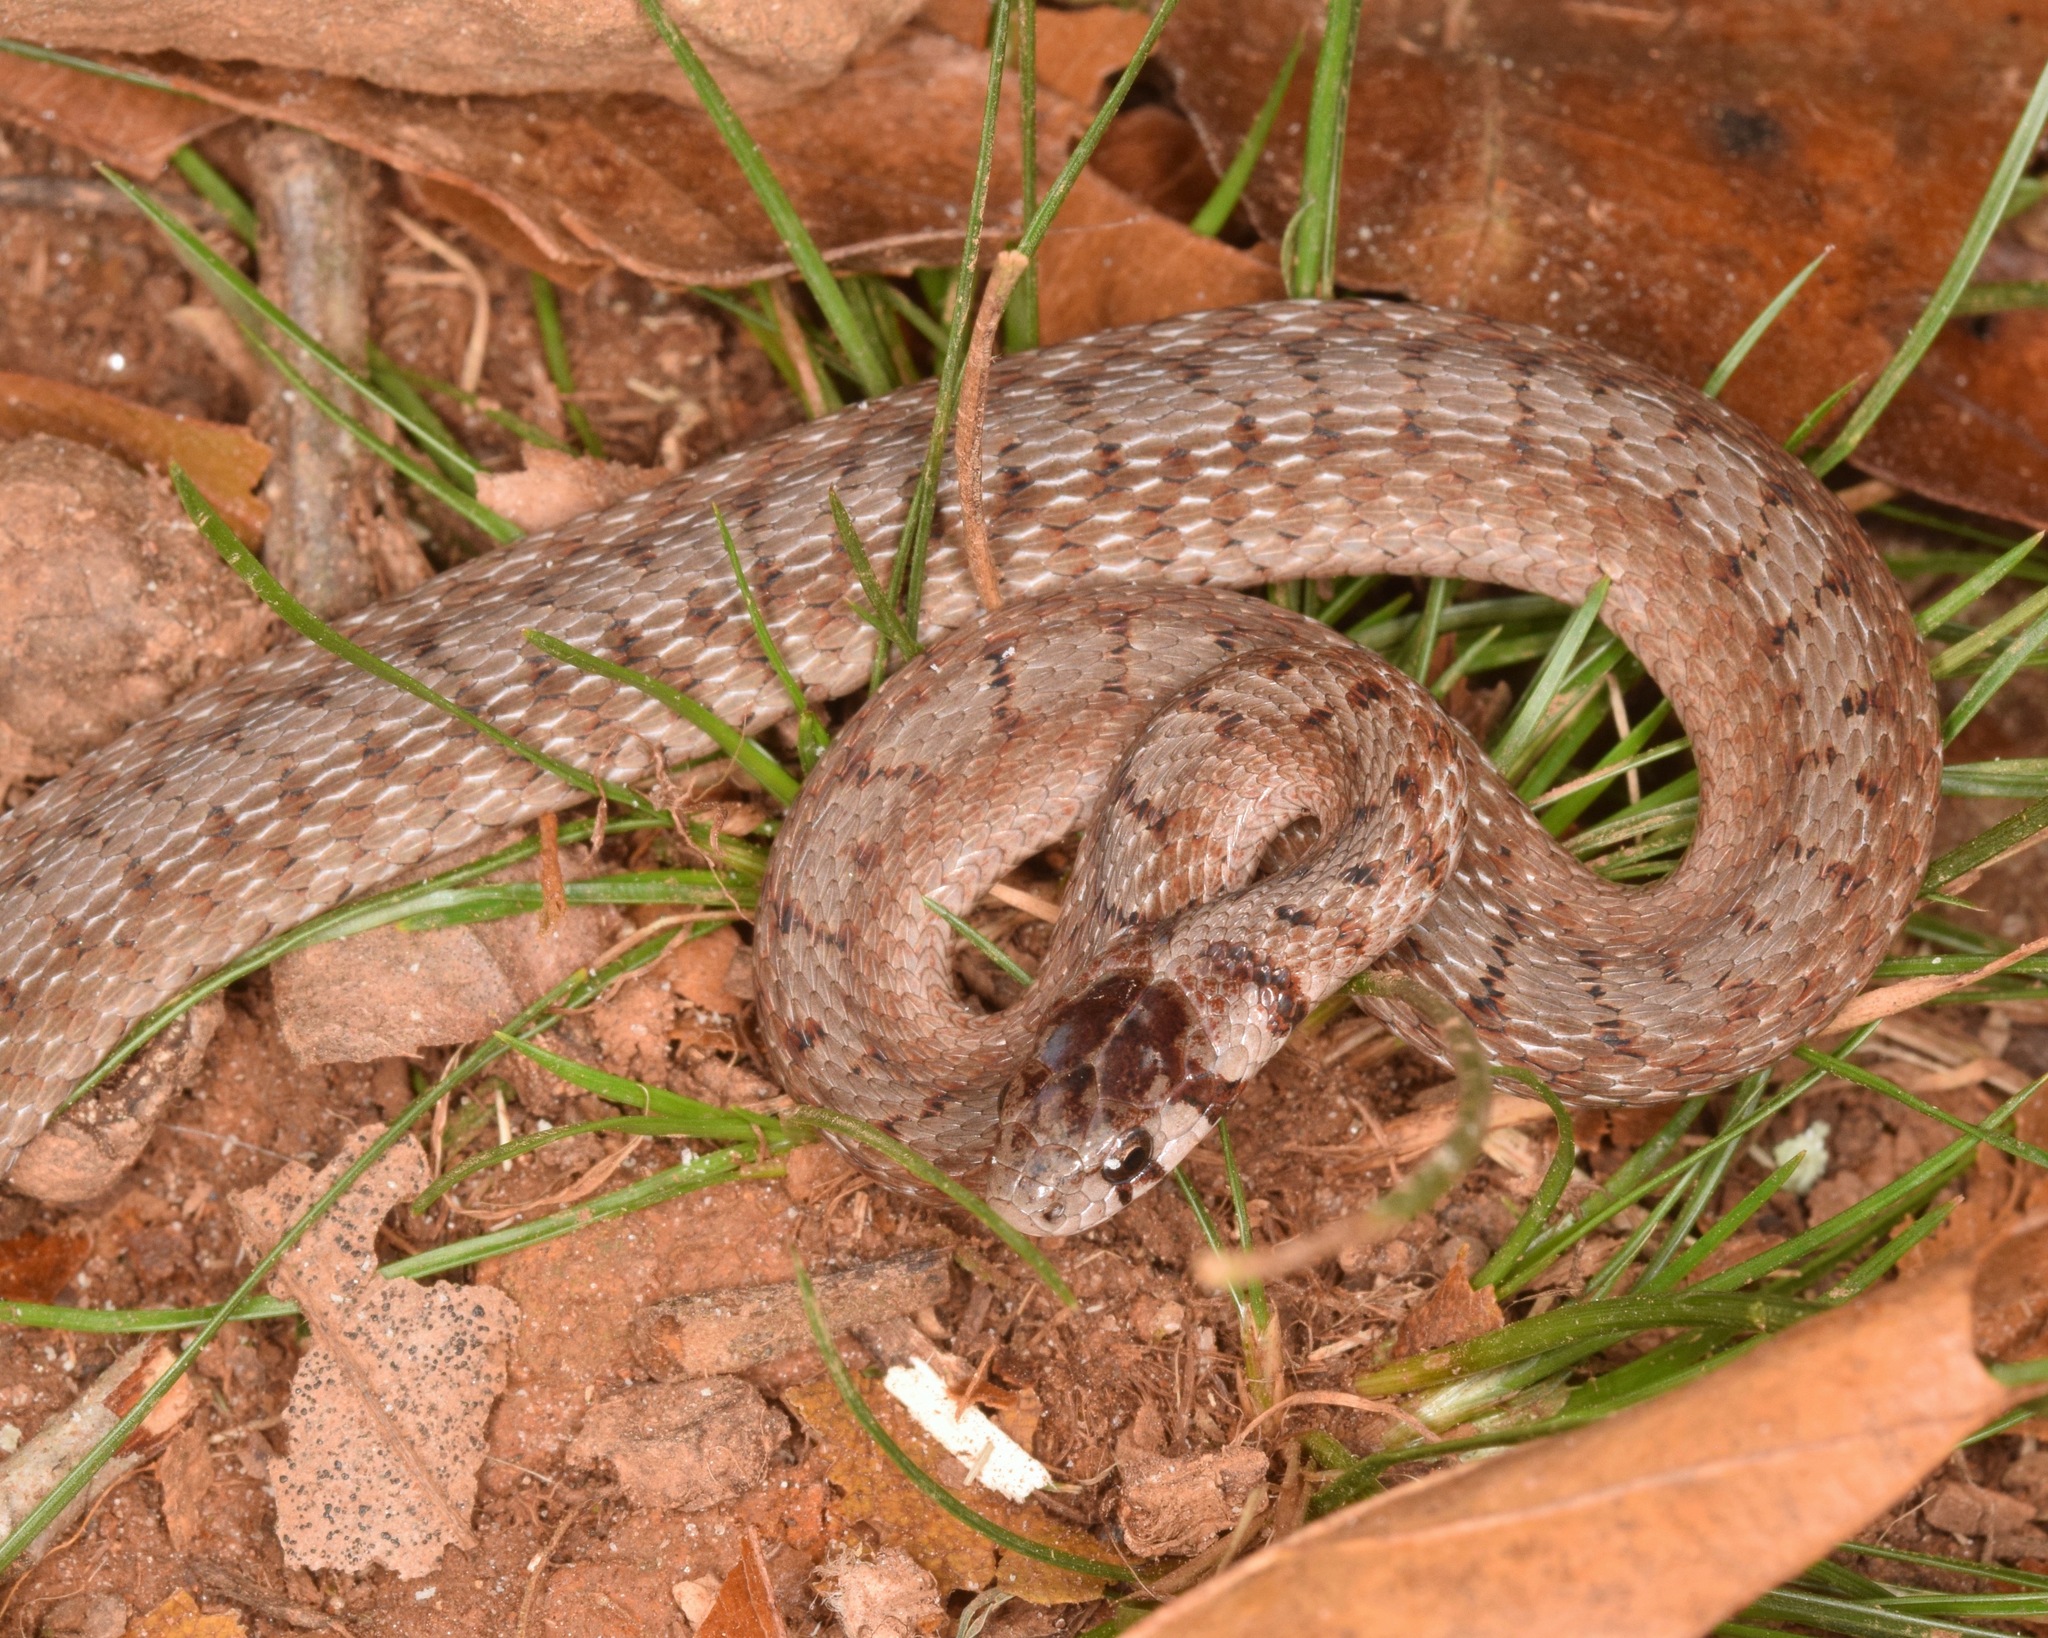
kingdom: Animalia
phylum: Chordata
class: Squamata
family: Colubridae
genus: Storeria
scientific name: Storeria dekayi
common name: (dekay’s) brown snake
